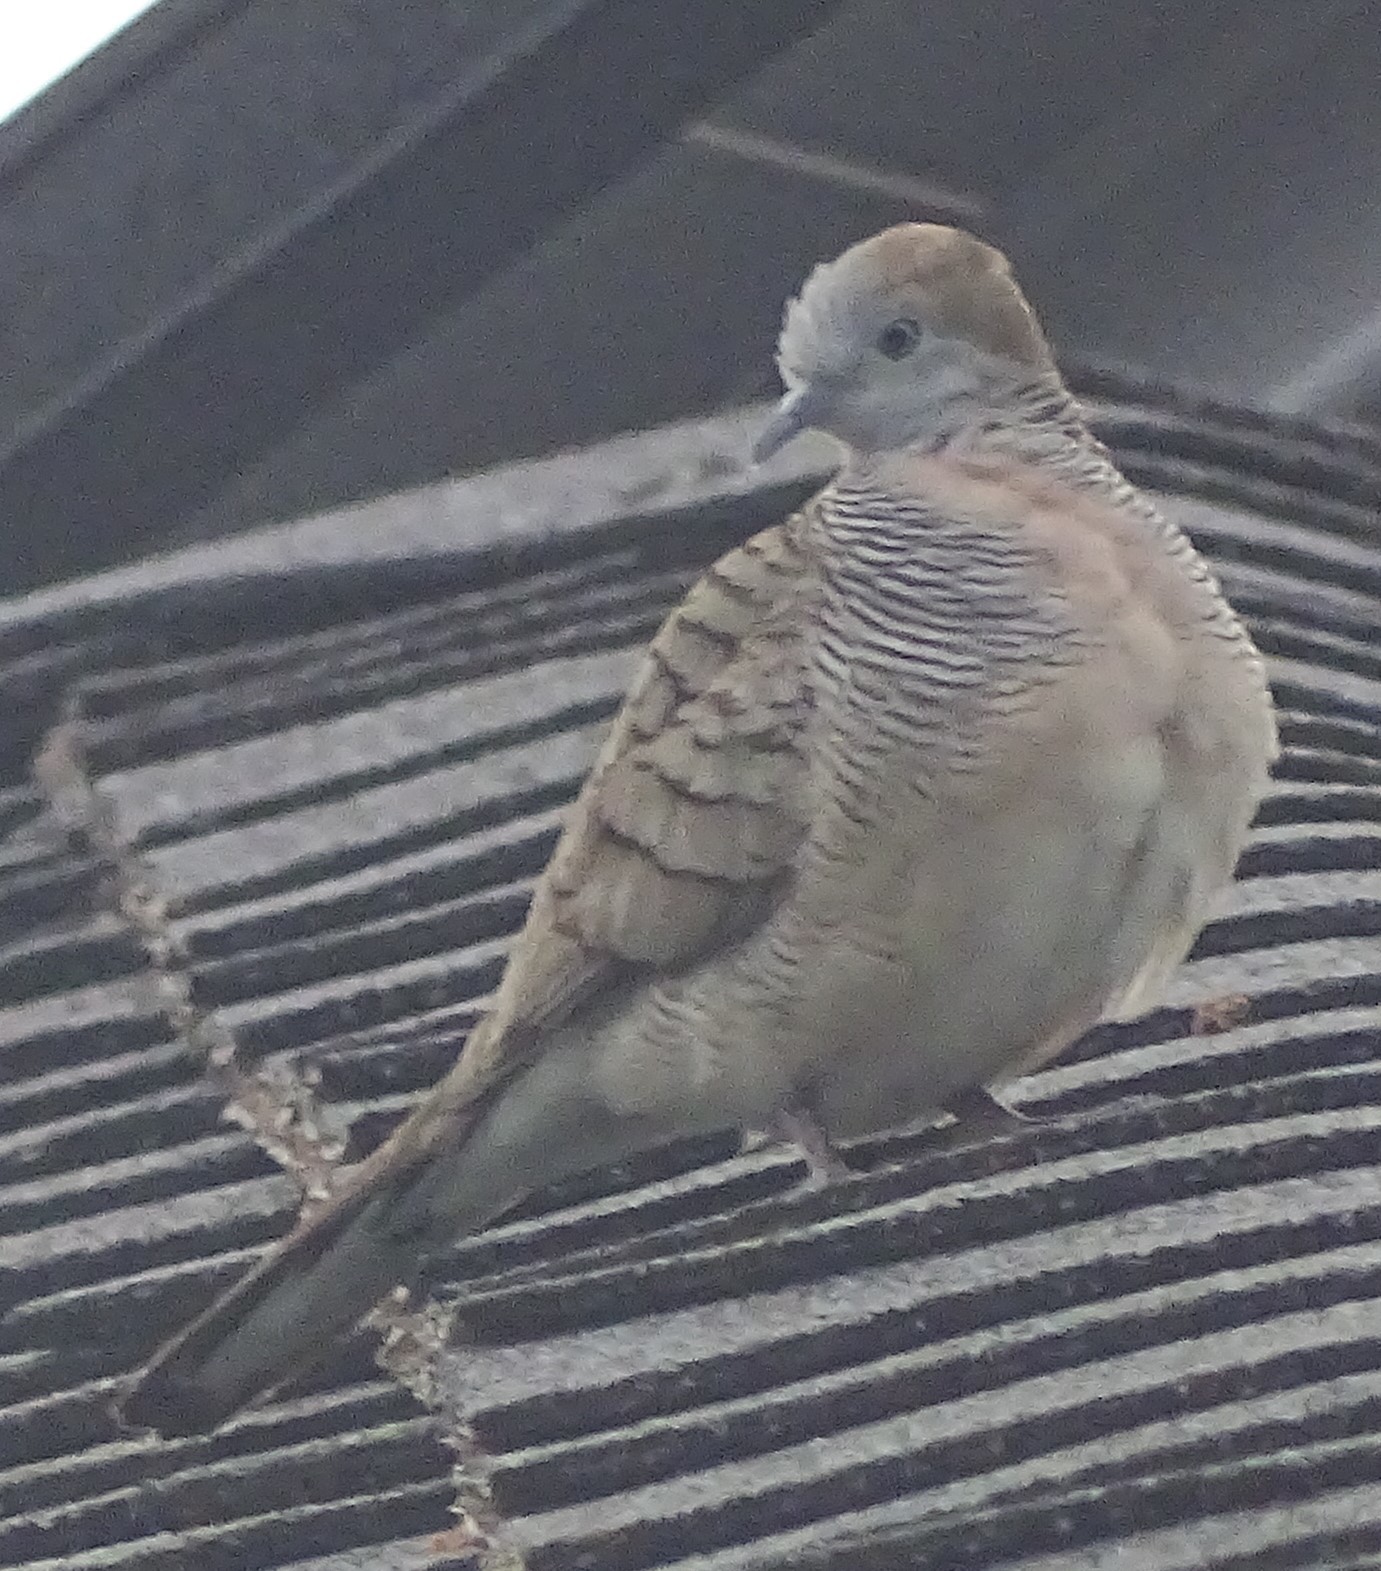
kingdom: Animalia
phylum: Chordata
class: Aves
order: Columbiformes
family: Columbidae
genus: Geopelia
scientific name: Geopelia striata
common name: Zebra dove
